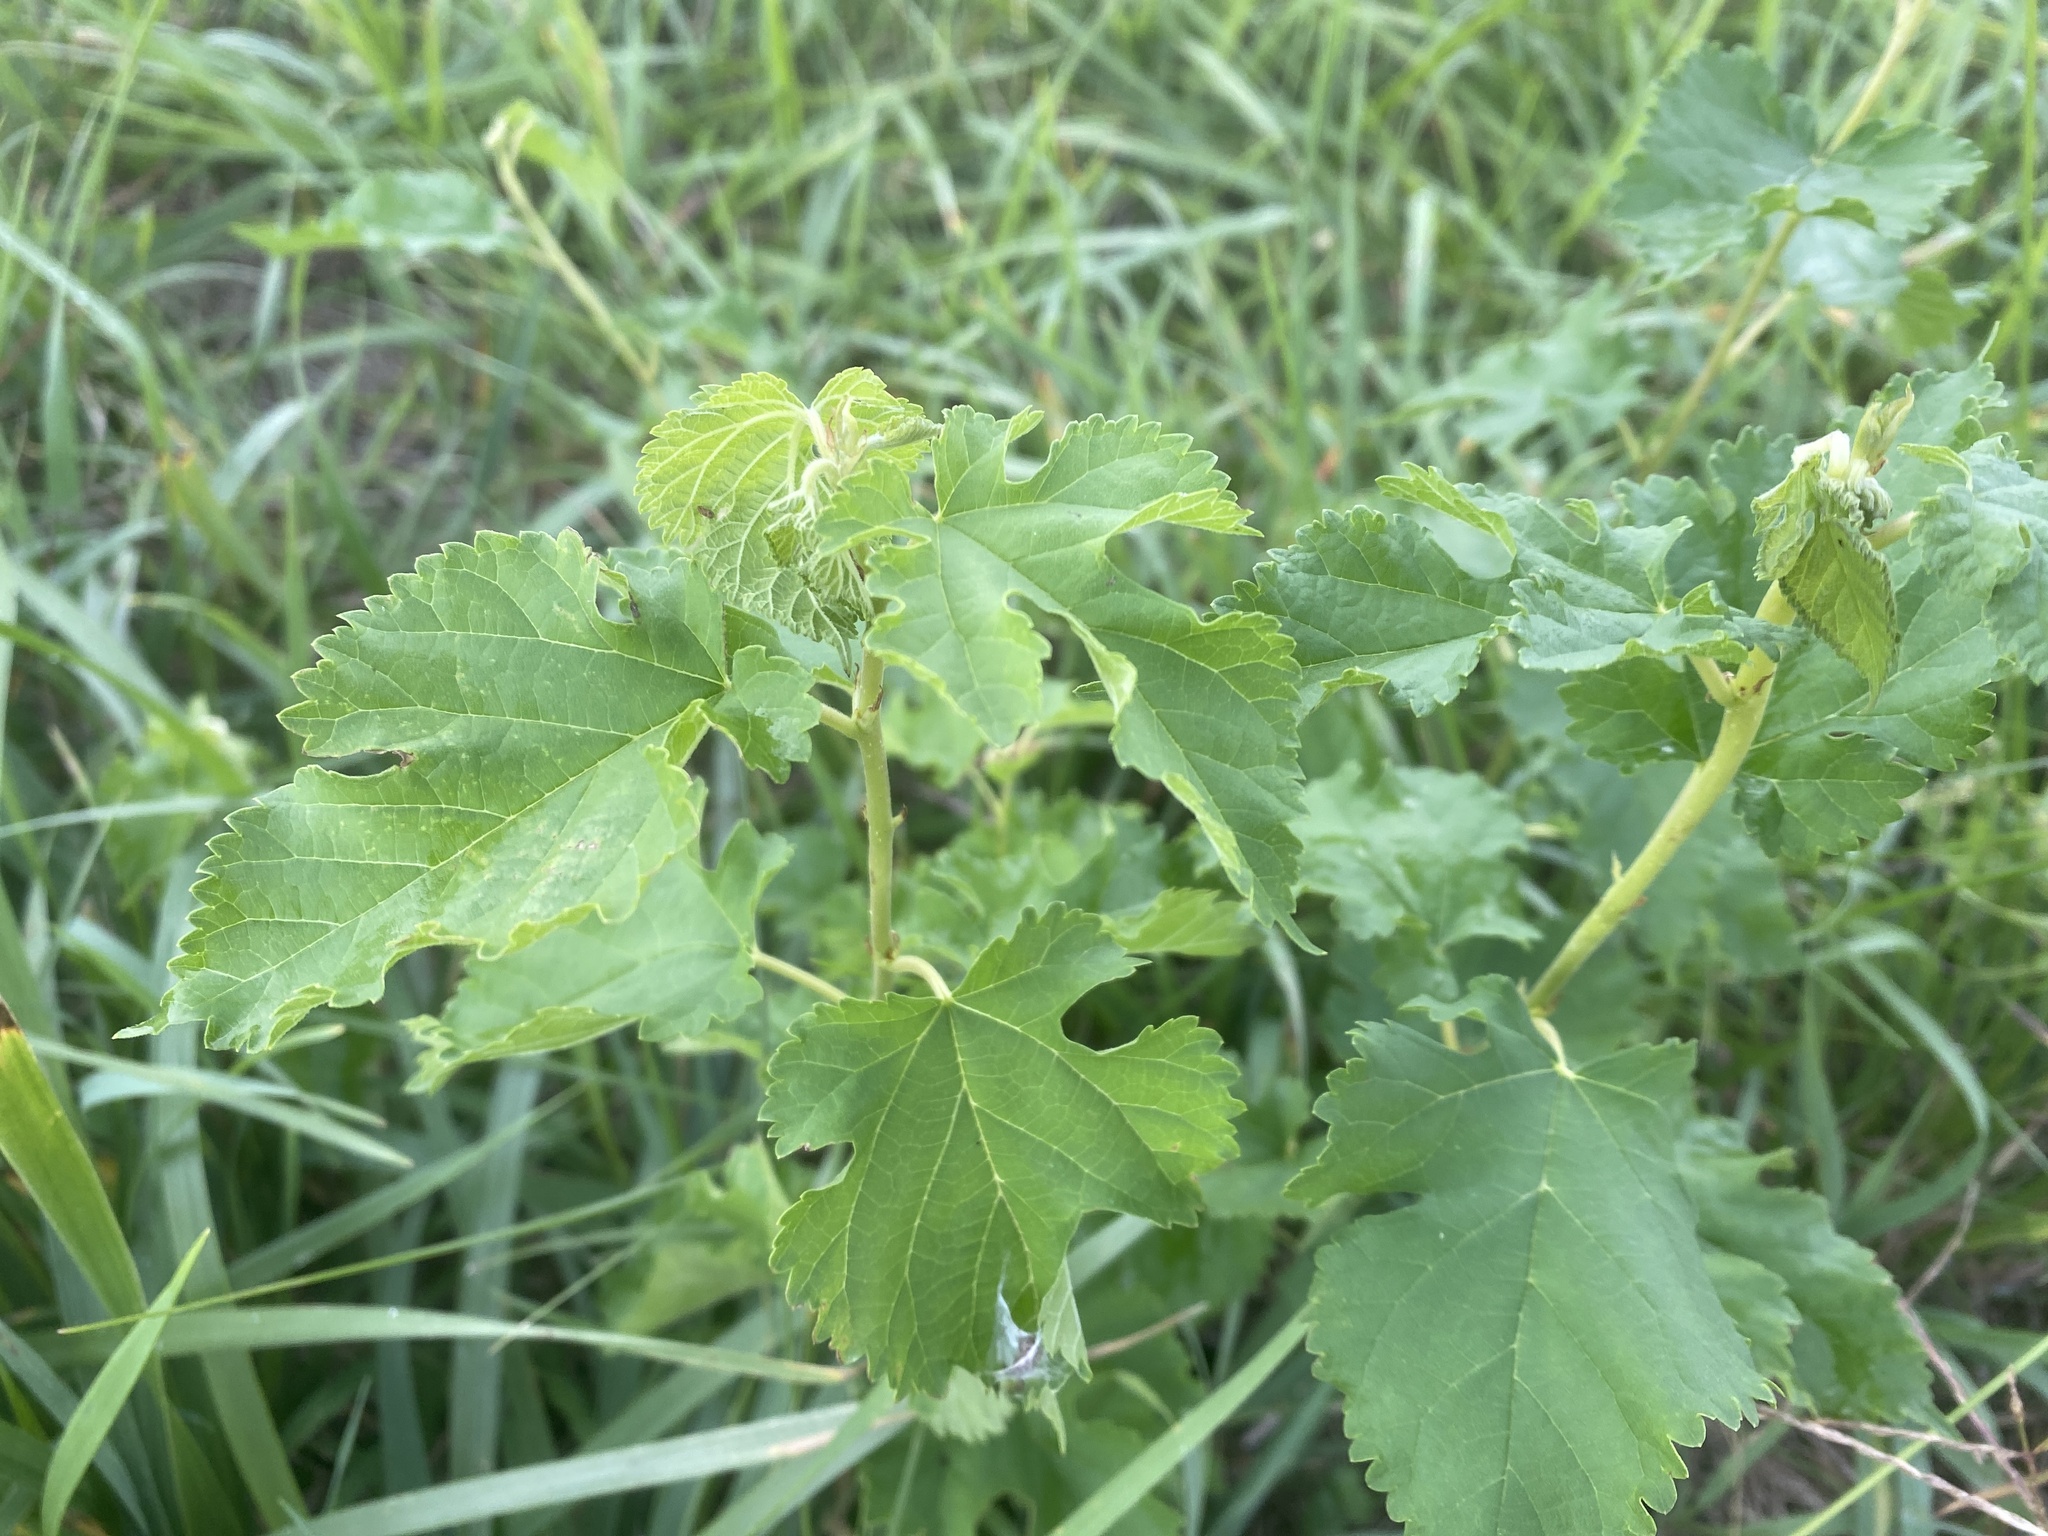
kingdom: Plantae
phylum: Tracheophyta
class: Magnoliopsida
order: Rosales
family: Moraceae
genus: Morus
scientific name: Morus alba
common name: White mulberry
